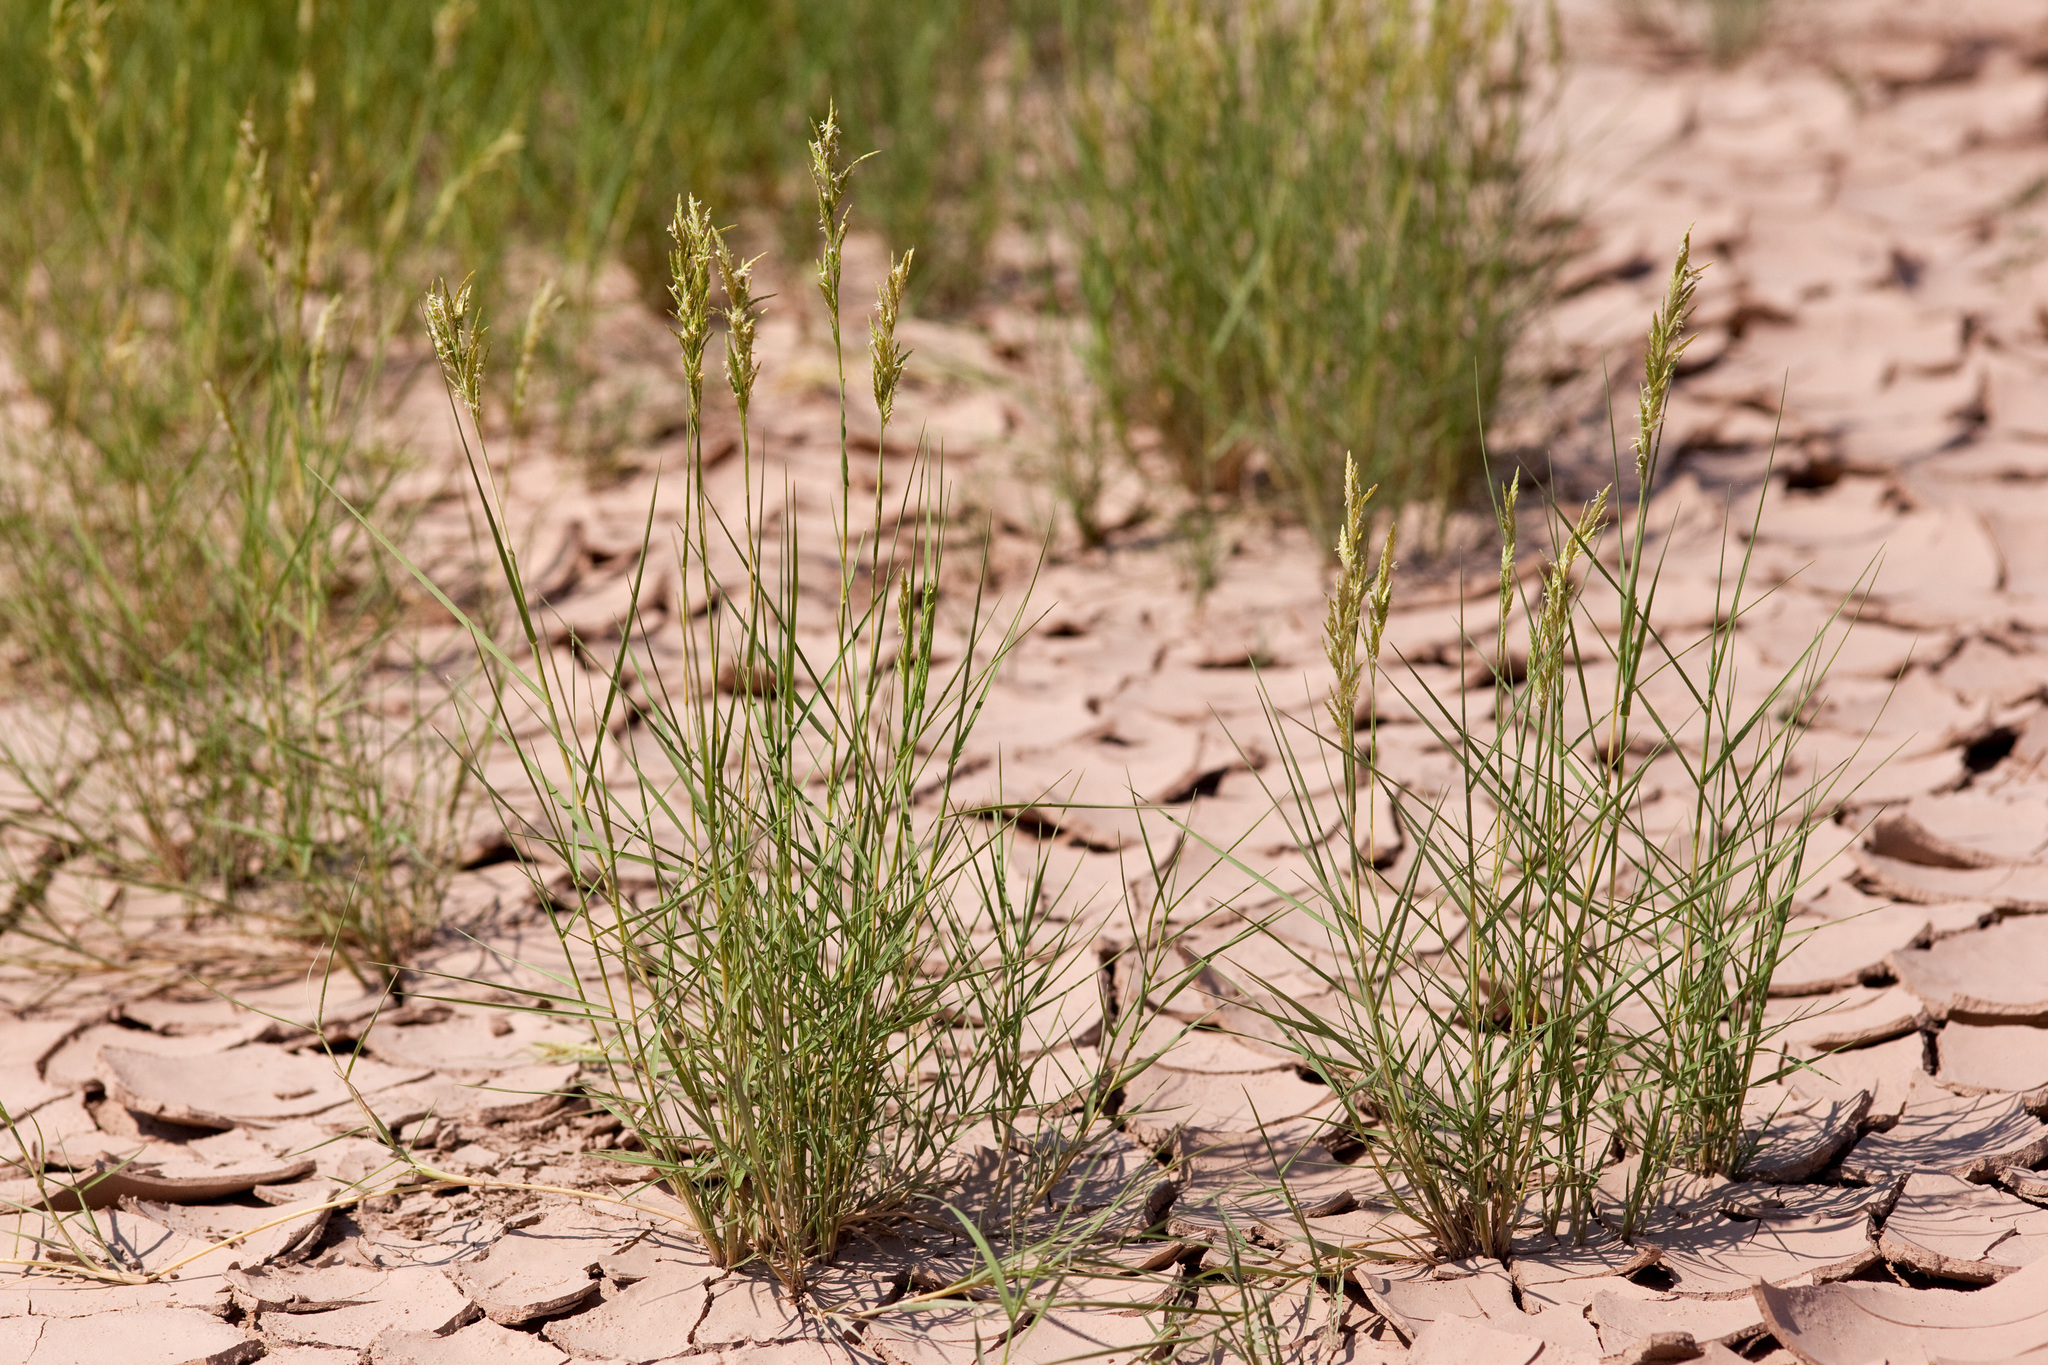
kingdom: Plantae
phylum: Tracheophyta
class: Liliopsida
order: Poales
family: Poaceae
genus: Distichlis
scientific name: Distichlis spicata
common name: Saltgrass
